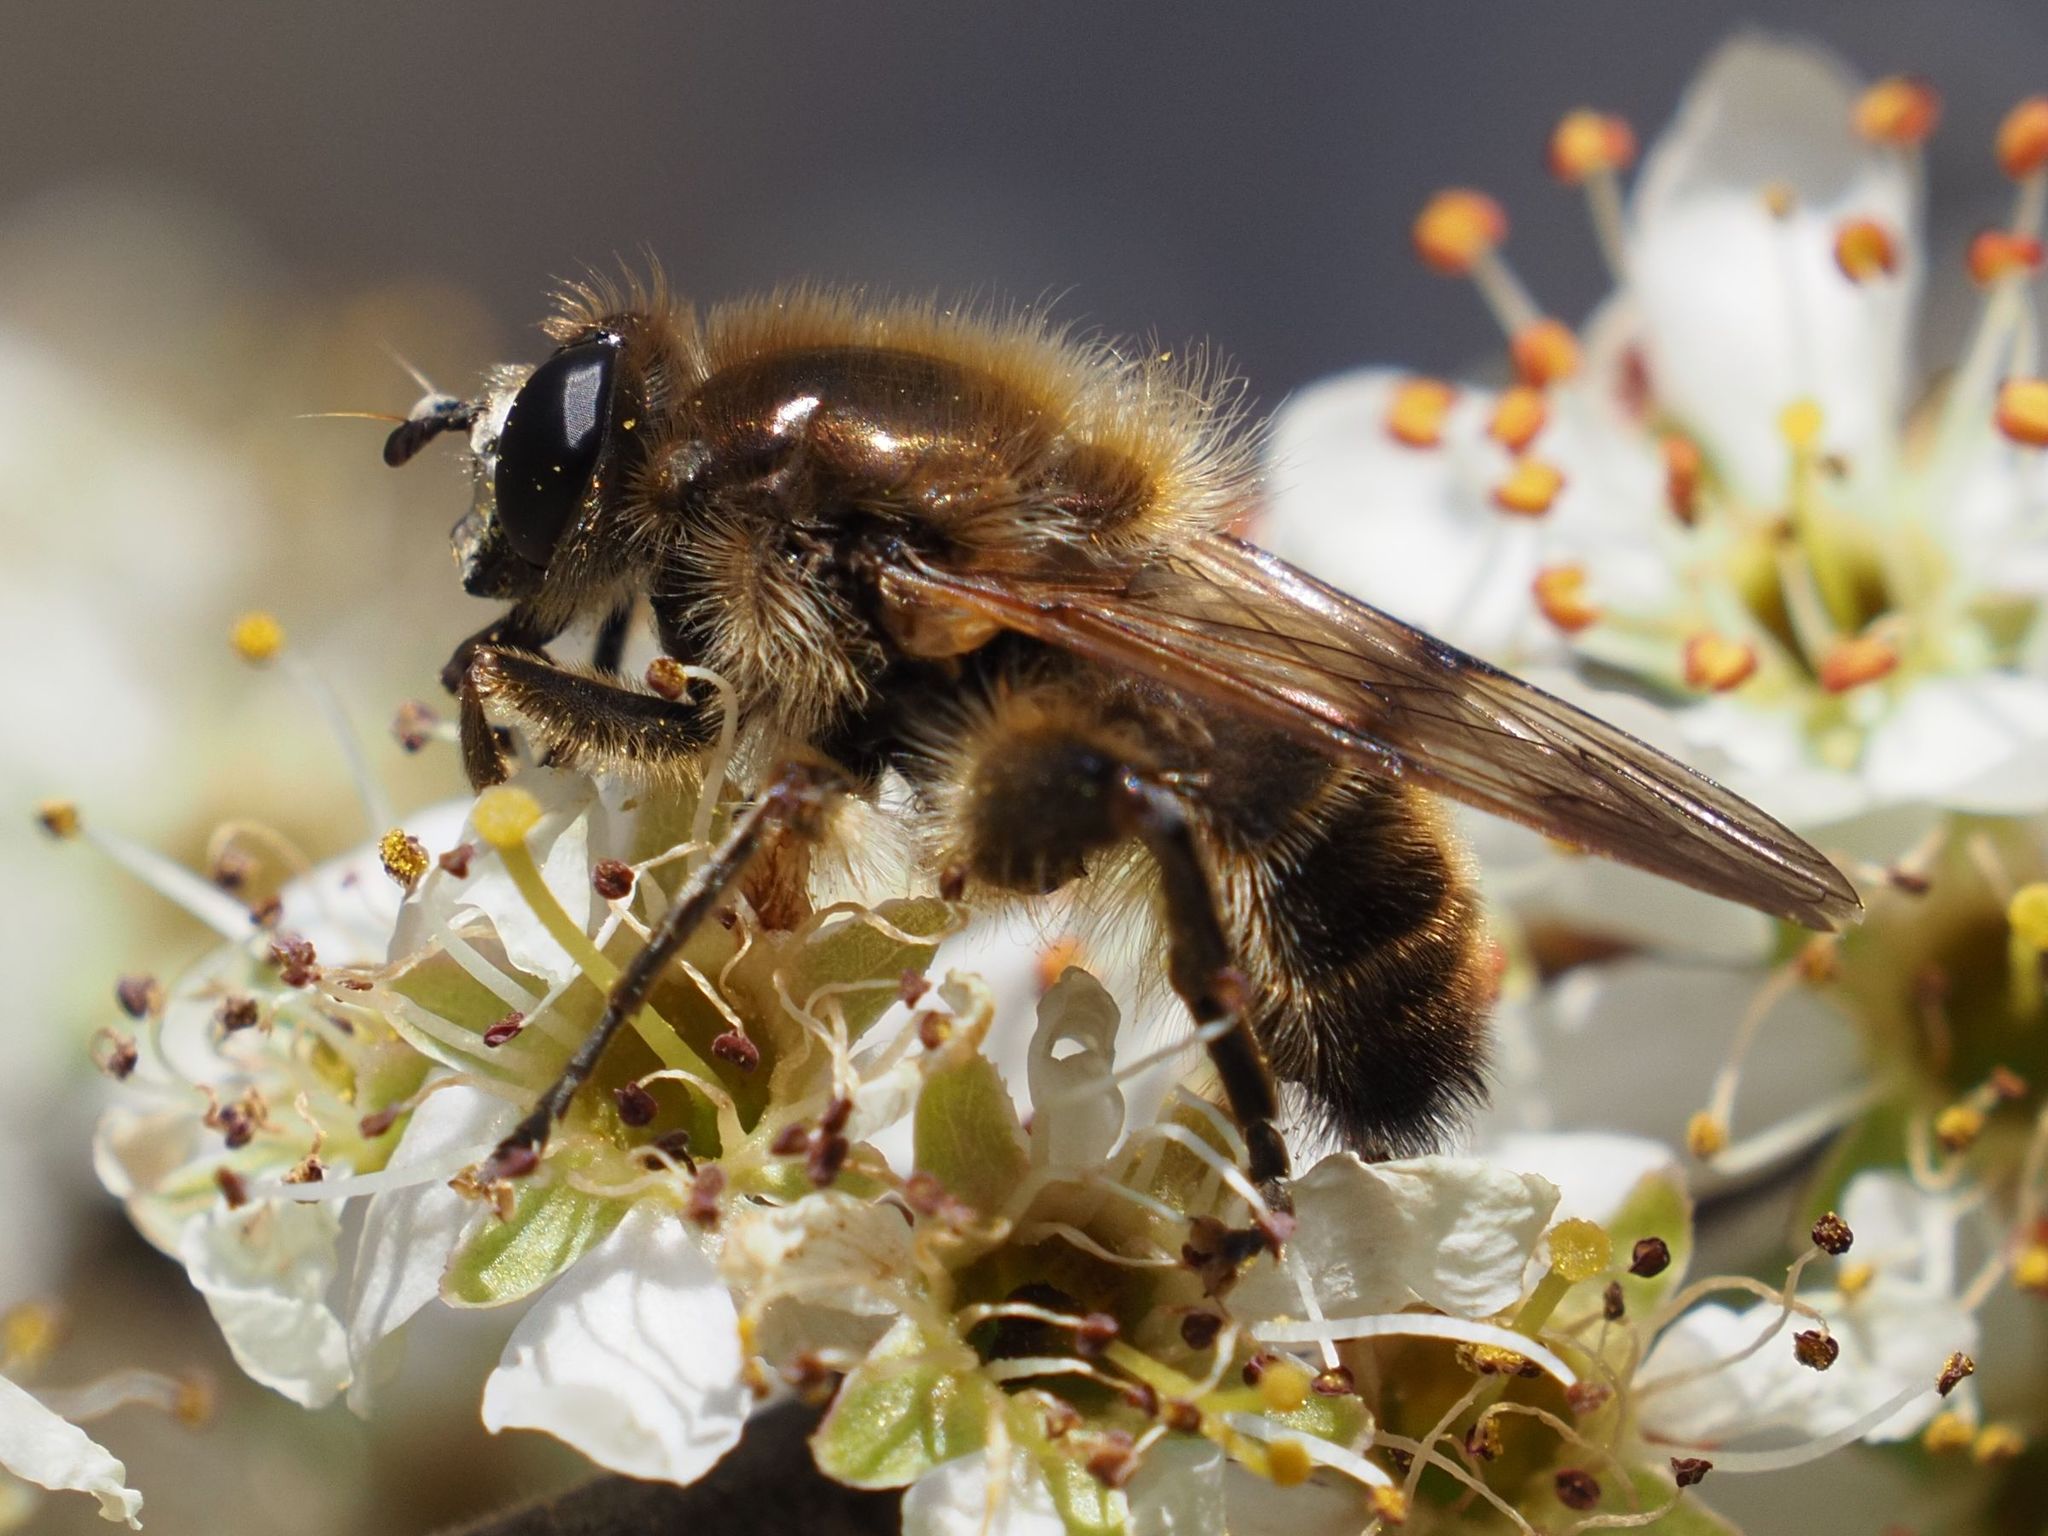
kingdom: Animalia
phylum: Arthropoda
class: Insecta
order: Diptera
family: Syrphidae
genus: Brachypalpus
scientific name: Brachypalpus valgus
